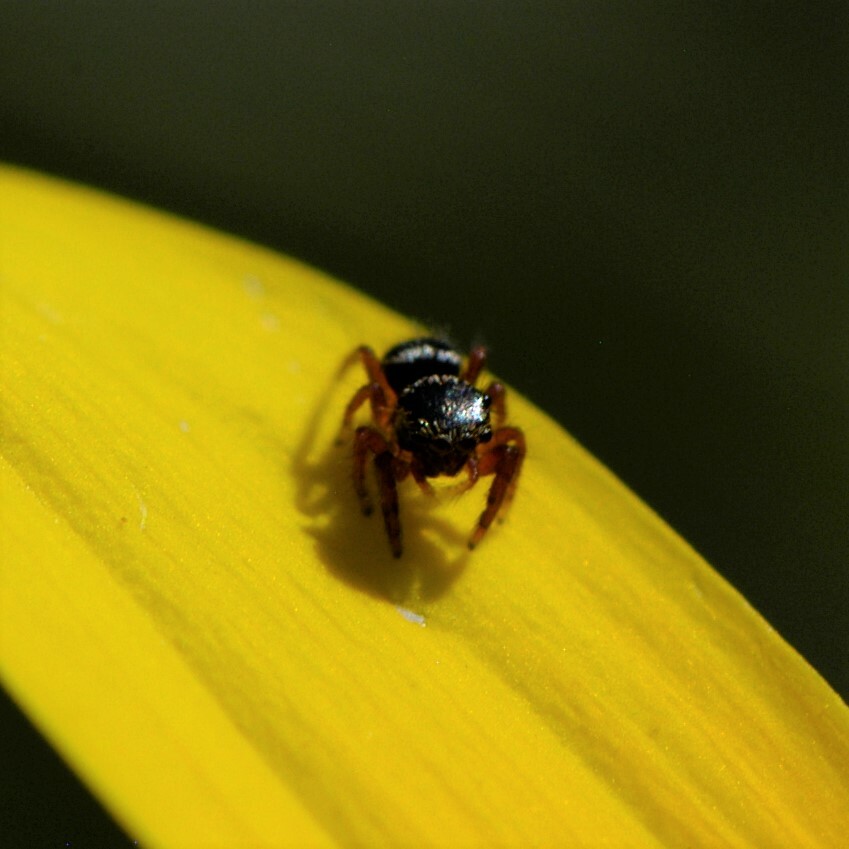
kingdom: Animalia
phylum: Arthropoda
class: Arachnida
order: Araneae
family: Salticidae
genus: Phidippus
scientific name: Phidippus
